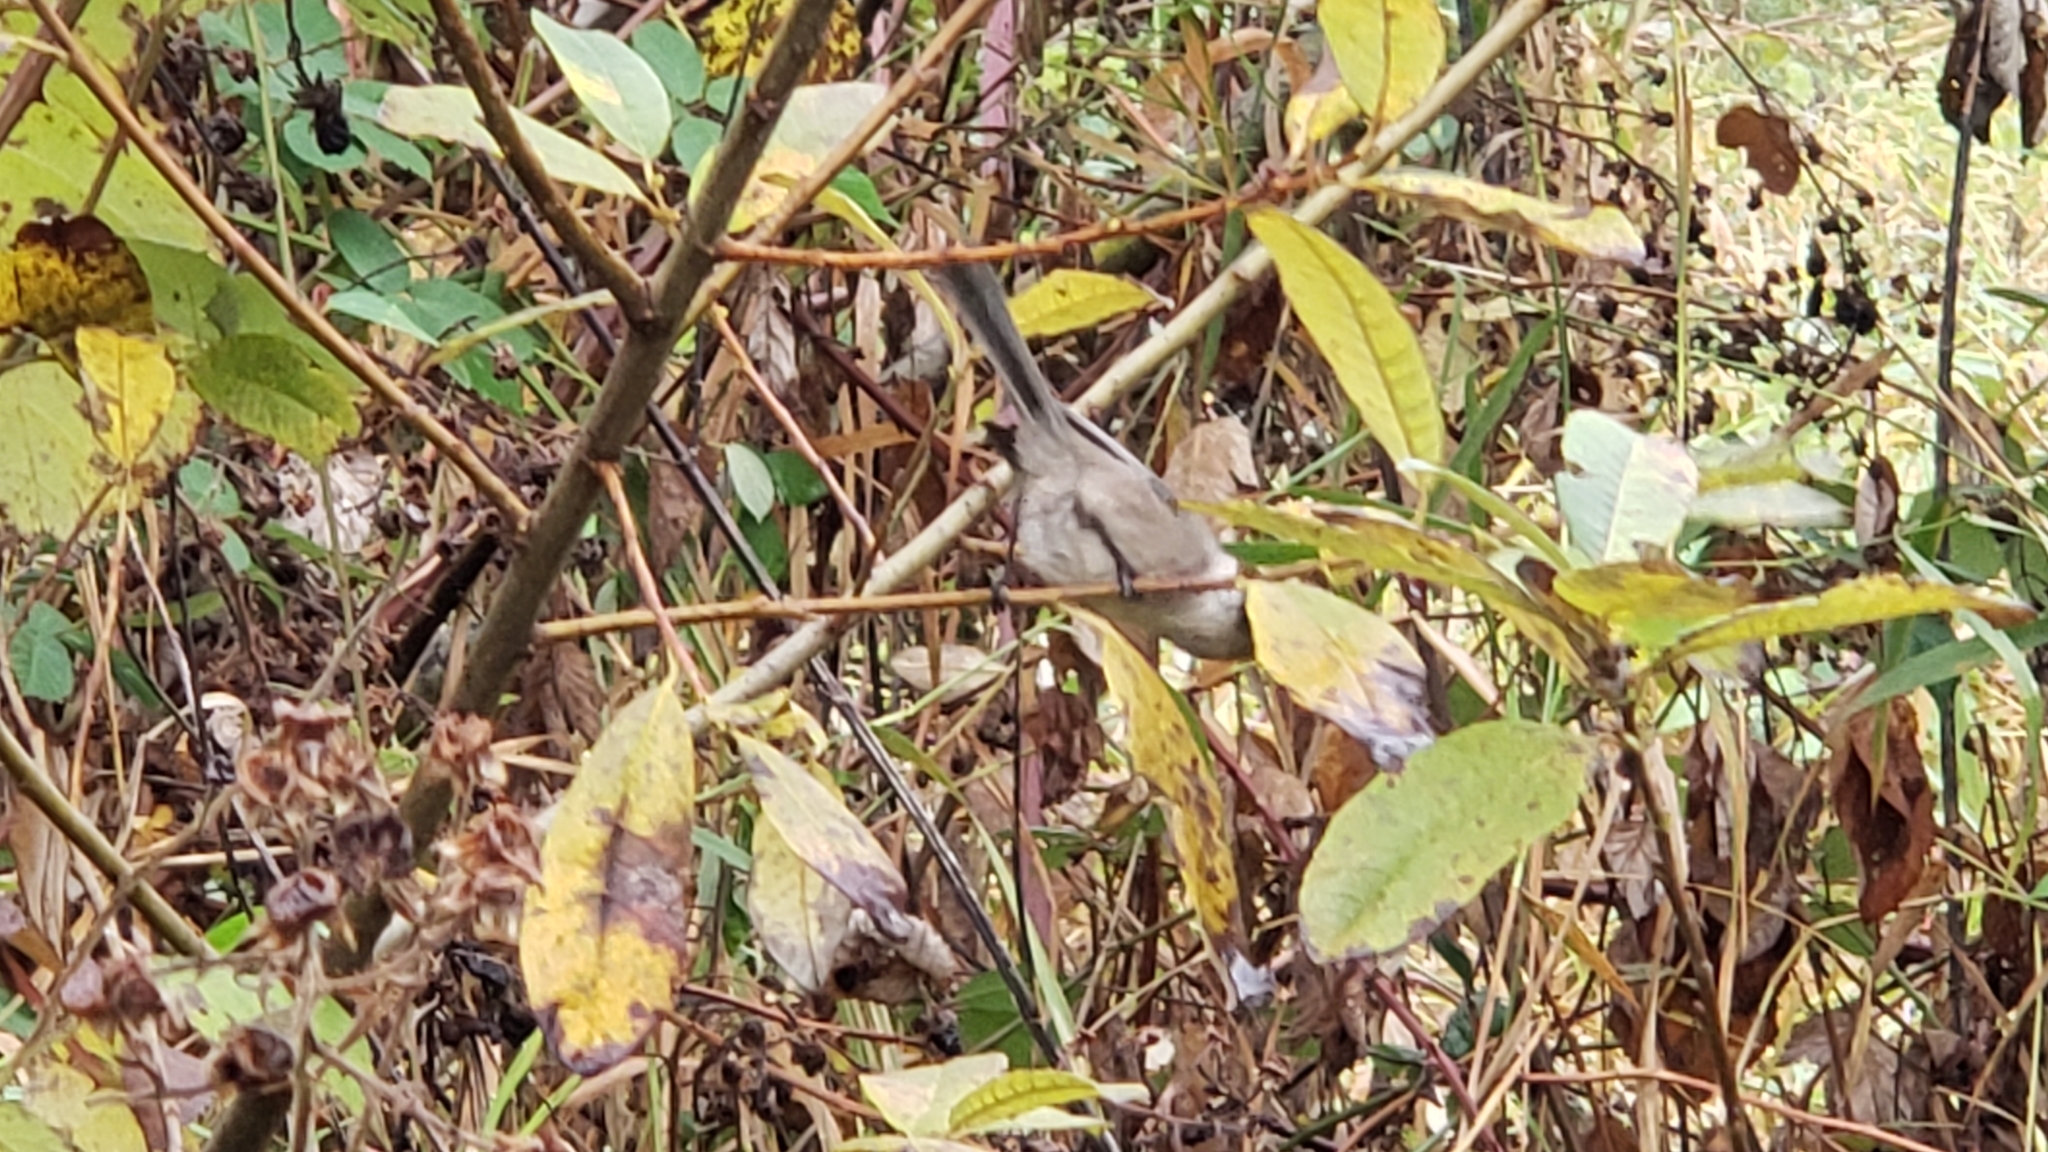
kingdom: Animalia
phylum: Chordata
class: Aves
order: Passeriformes
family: Aegithalidae
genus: Psaltriparus
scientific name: Psaltriparus minimus
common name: American bushtit
